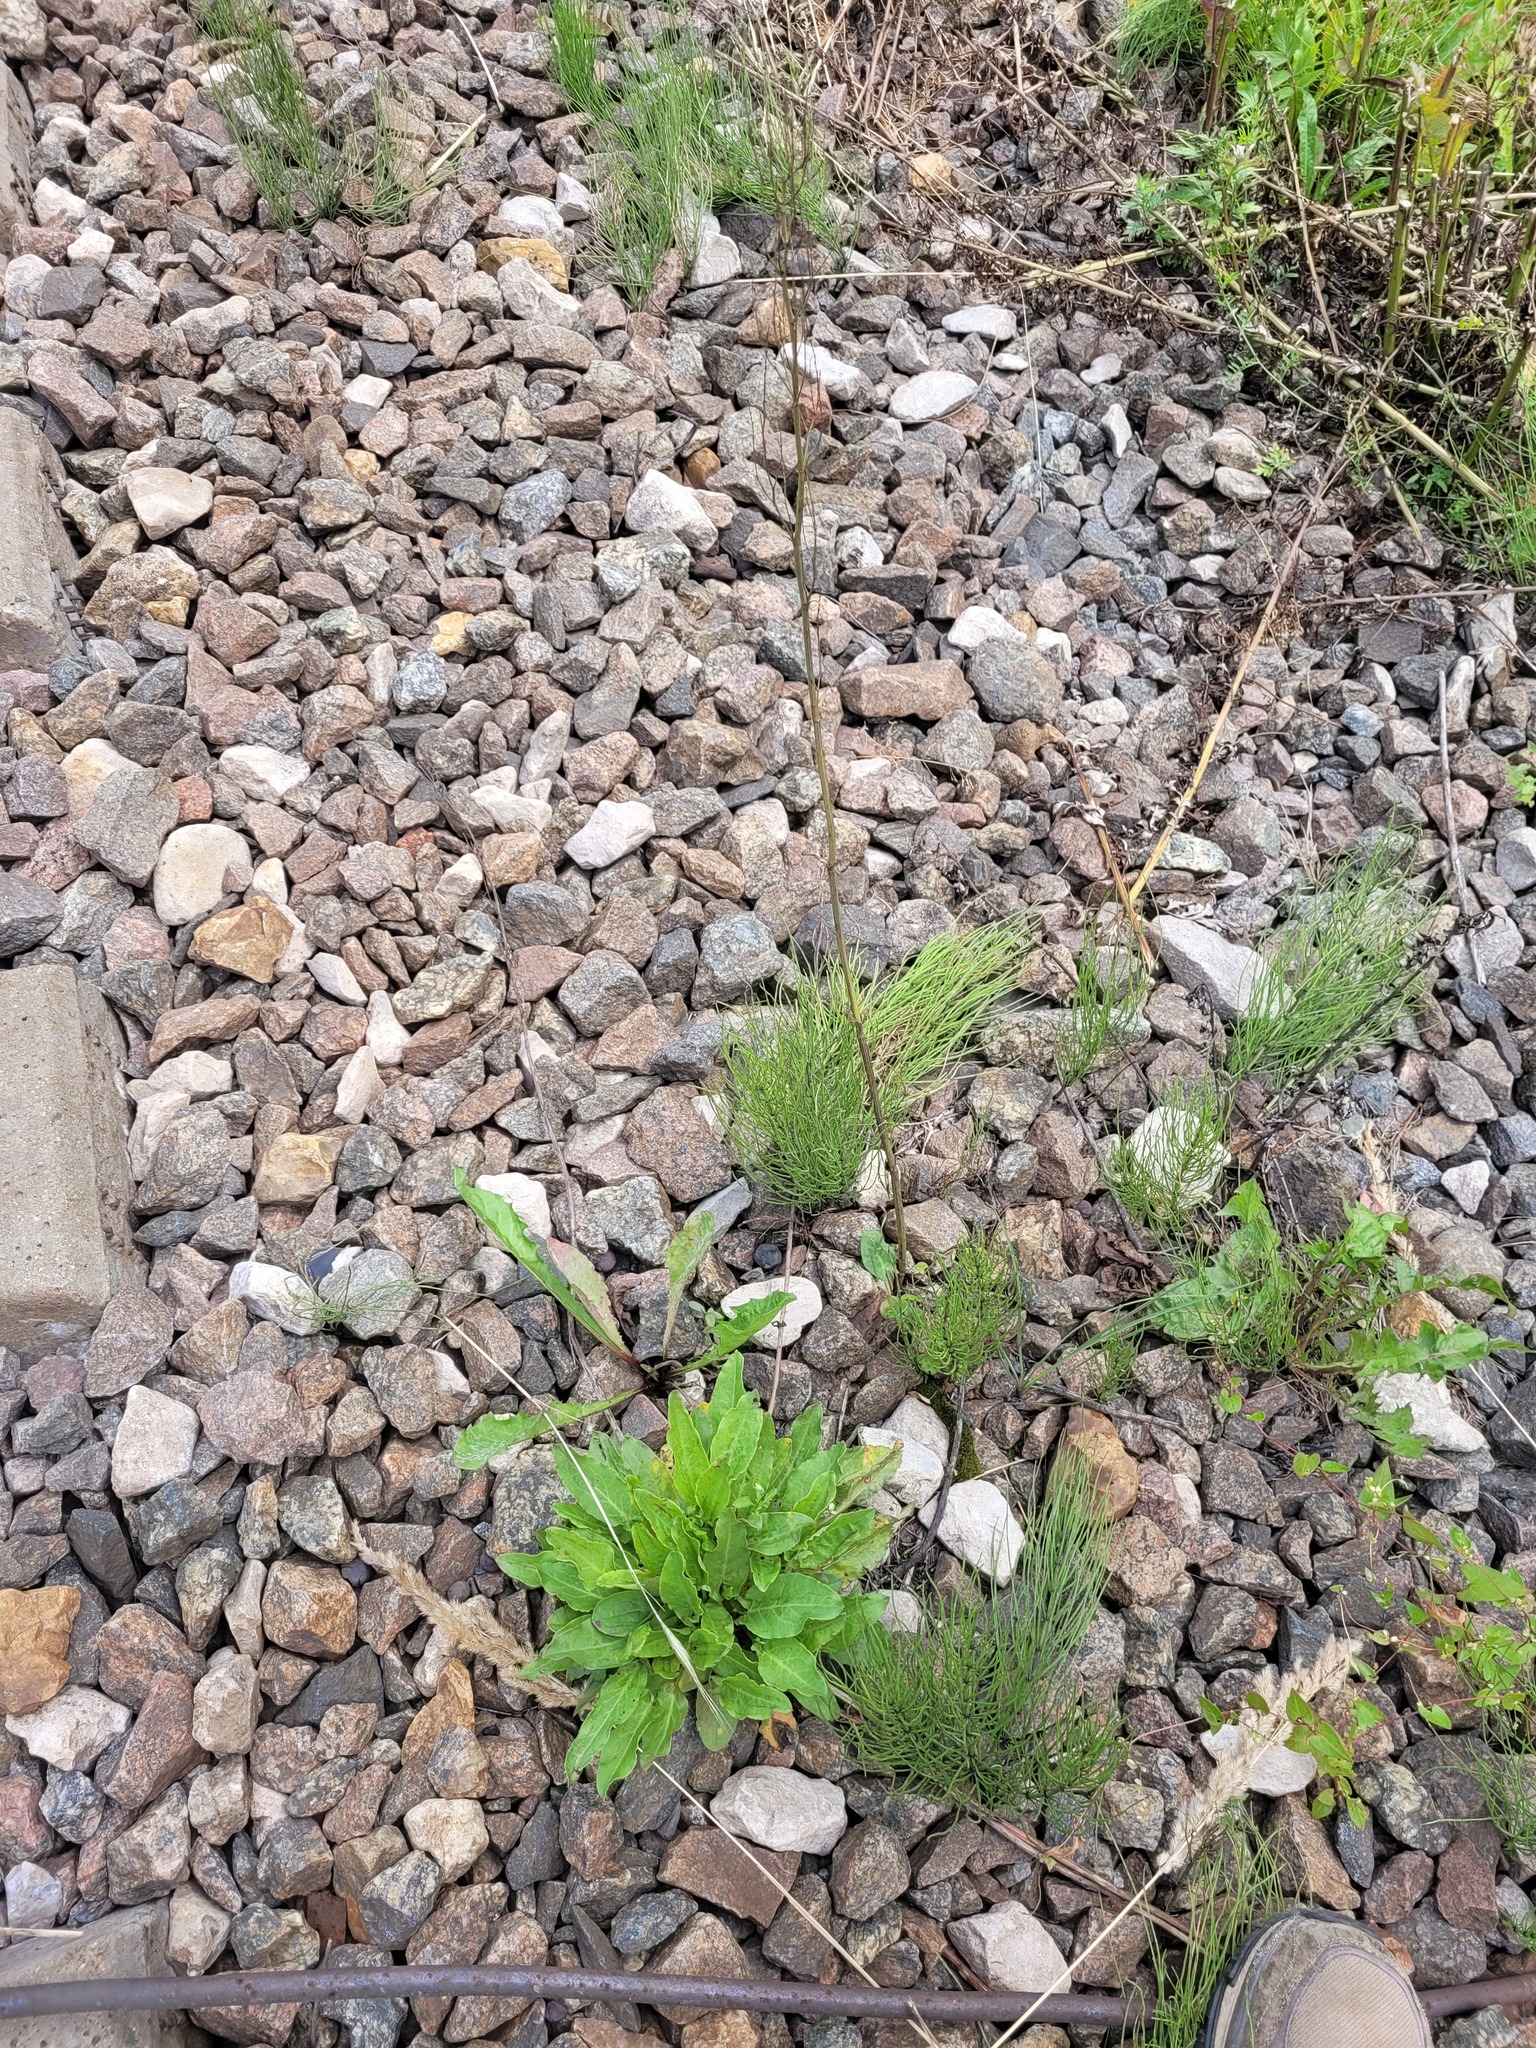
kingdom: Plantae
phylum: Tracheophyta
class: Magnoliopsida
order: Caryophyllales
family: Polygonaceae
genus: Rumex
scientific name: Rumex acetosa
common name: Garden sorrel
